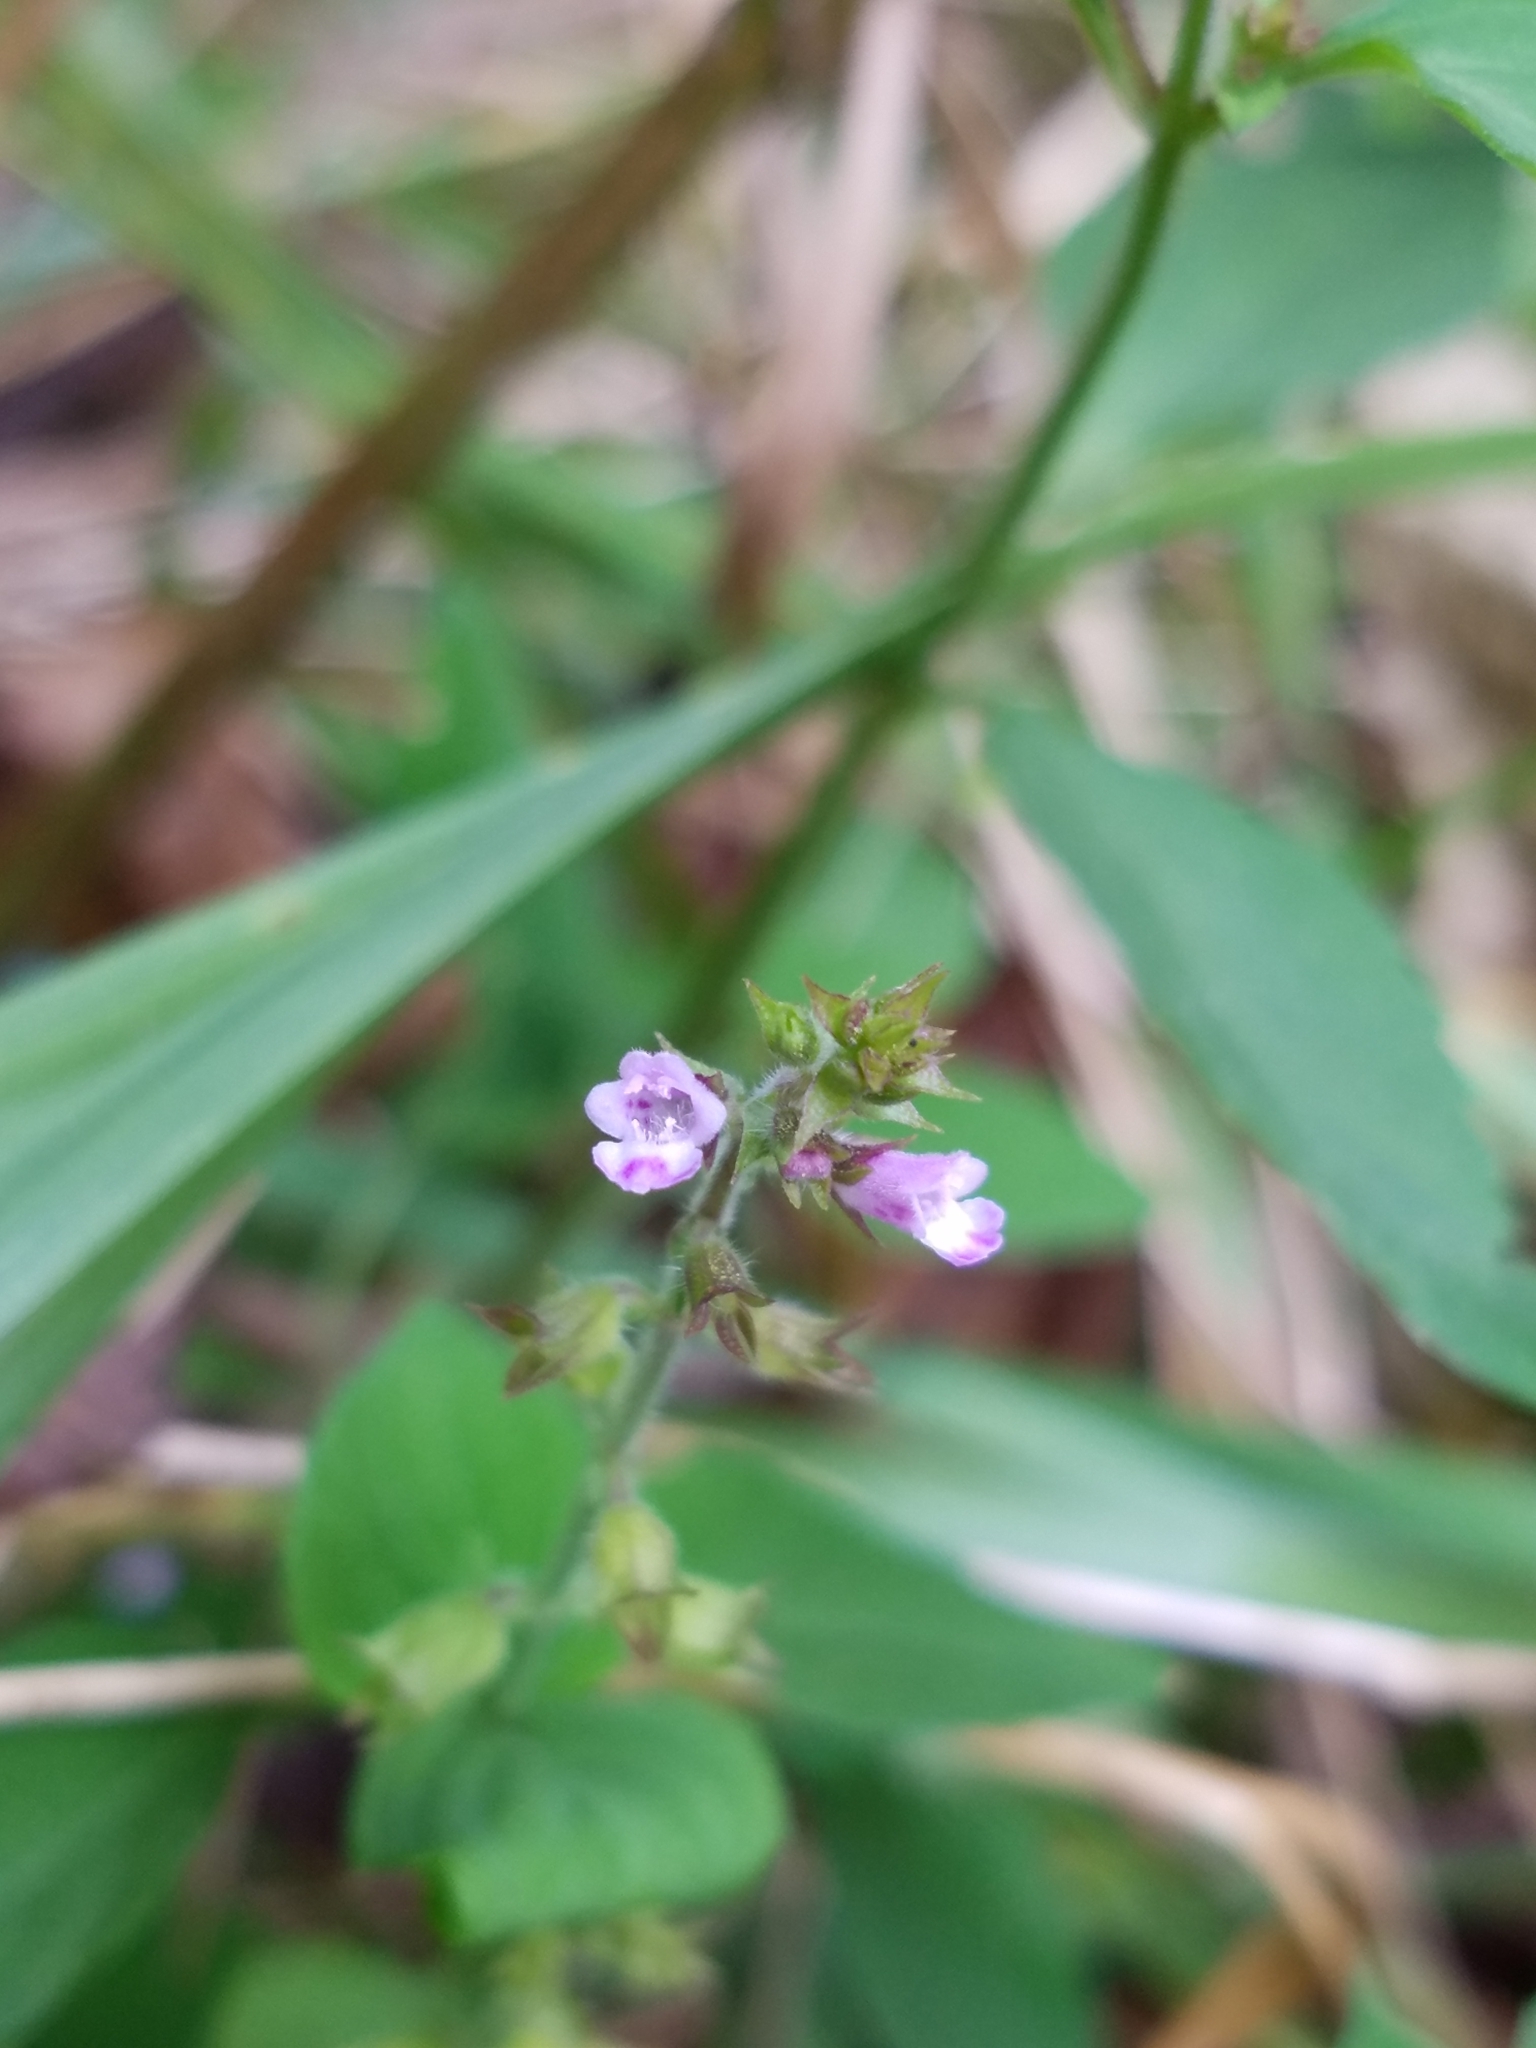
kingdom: Plantae
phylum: Tracheophyta
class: Magnoliopsida
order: Lamiales
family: Lamiaceae
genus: Mosla
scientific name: Mosla dianthera
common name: Miniature beefsteakplant
